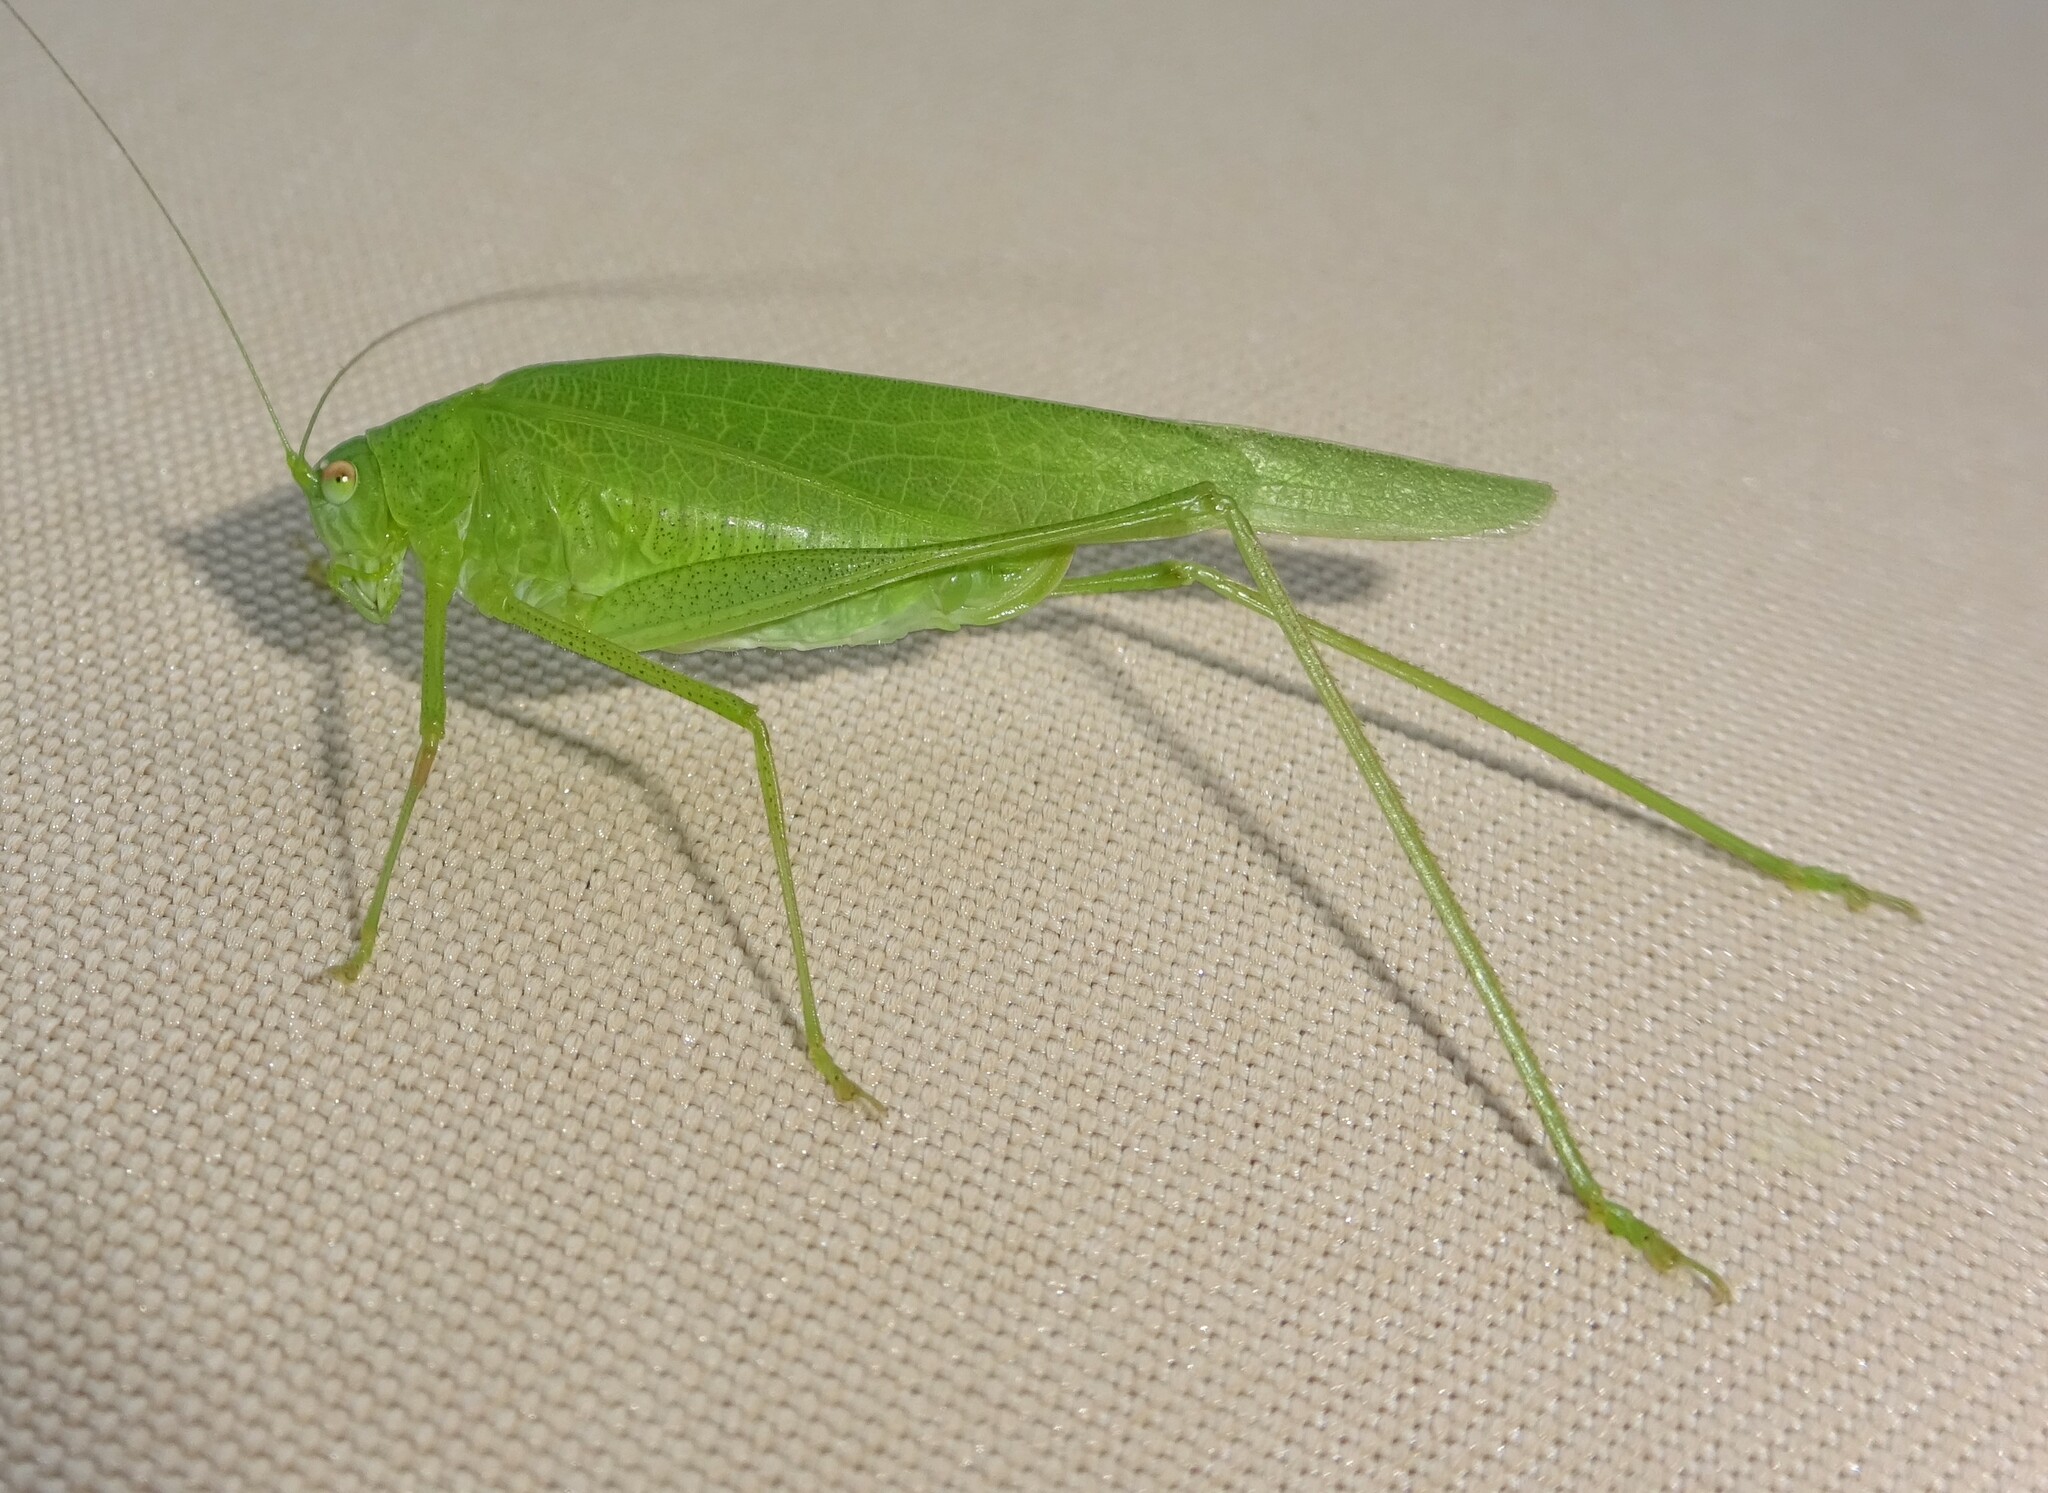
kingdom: Animalia
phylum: Arthropoda
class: Insecta
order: Orthoptera
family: Tettigoniidae
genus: Phaneroptera
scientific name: Phaneroptera nana
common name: Southern sickle bush-cricket
